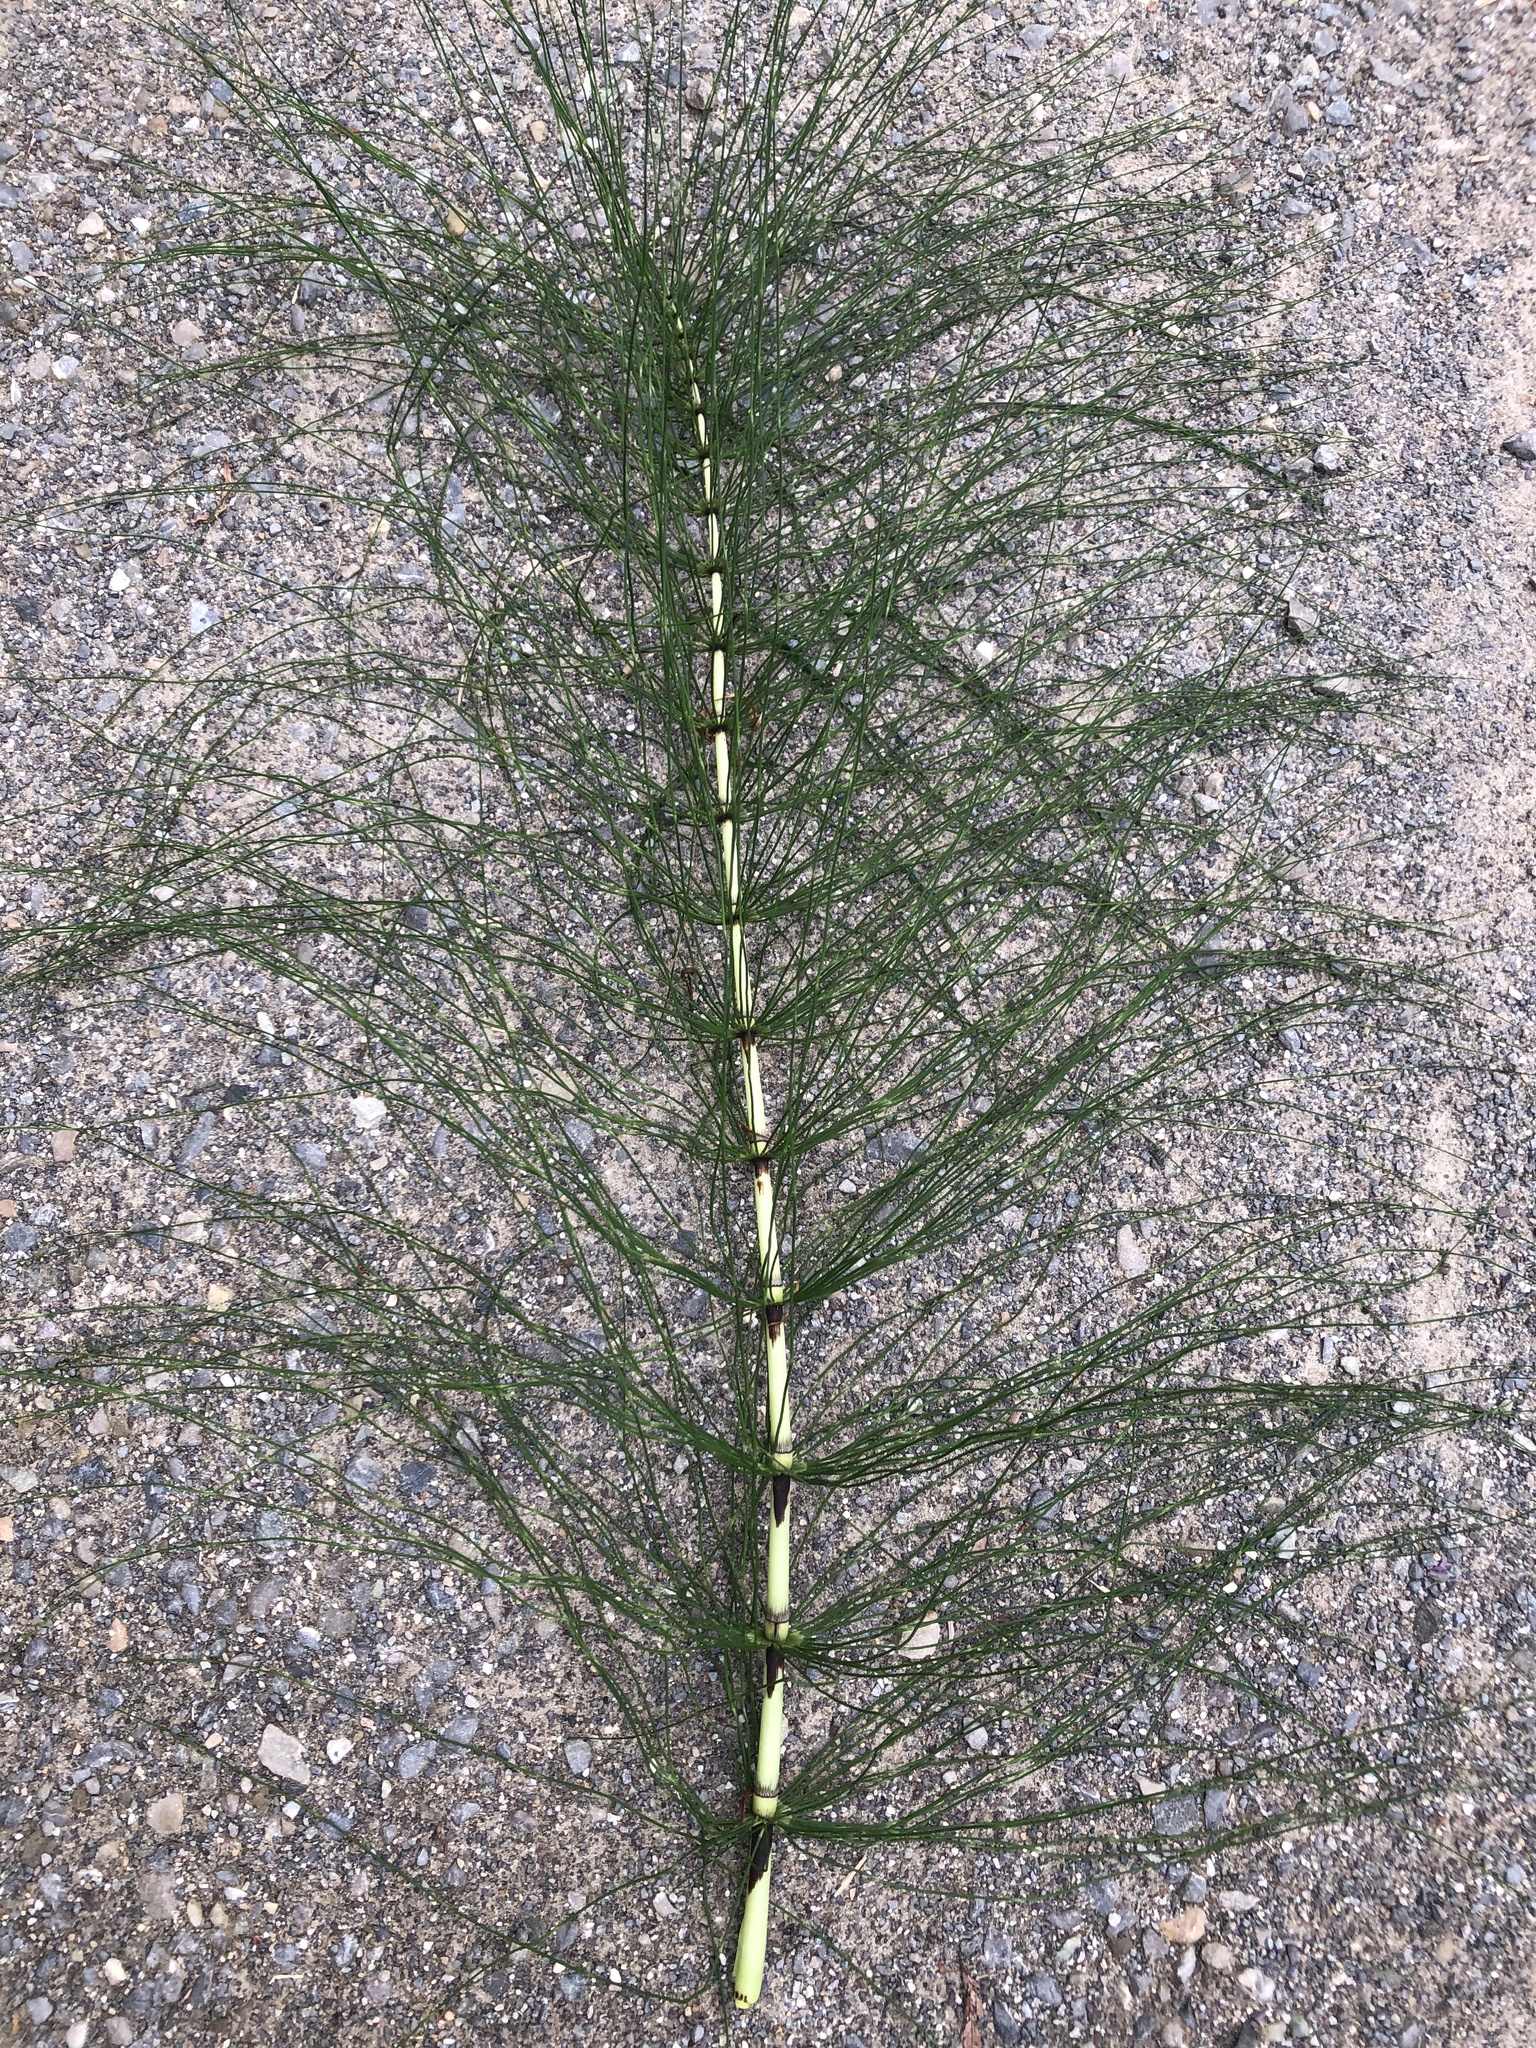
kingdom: Plantae
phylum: Tracheophyta
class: Polypodiopsida
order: Equisetales
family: Equisetaceae
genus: Equisetum
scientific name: Equisetum telmateia
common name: Great horsetail
